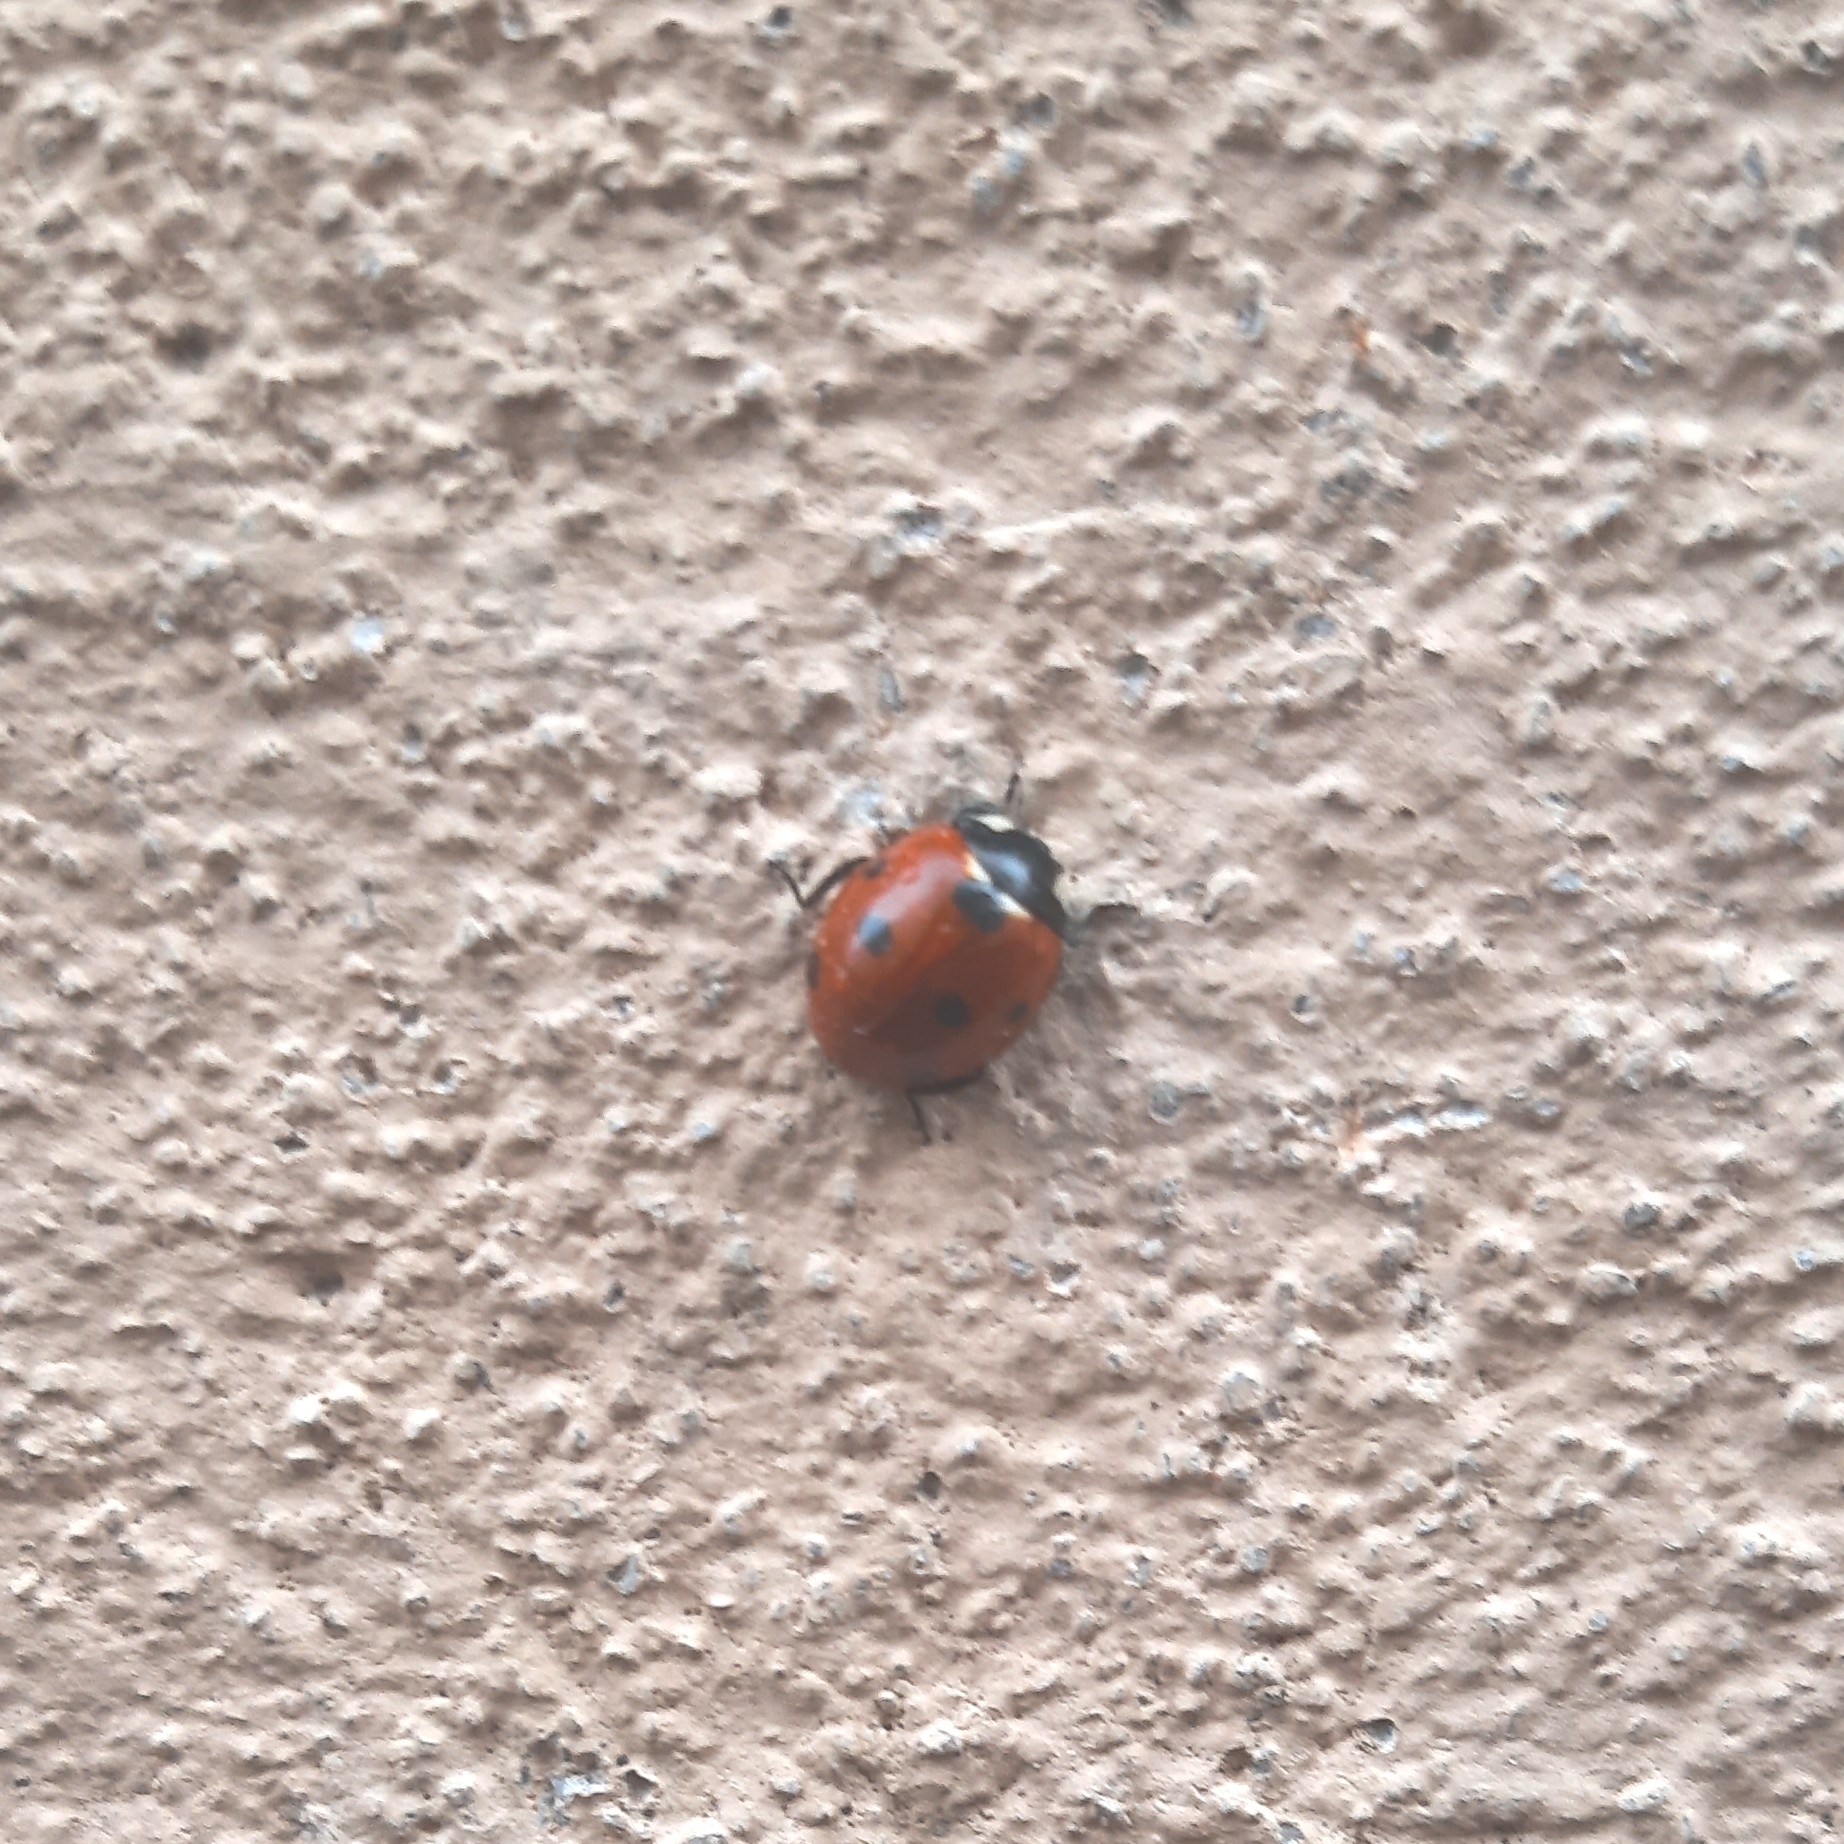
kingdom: Animalia
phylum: Arthropoda
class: Insecta
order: Coleoptera
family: Coccinellidae
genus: Coccinella
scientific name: Coccinella septempunctata
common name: Sevenspotted lady beetle
